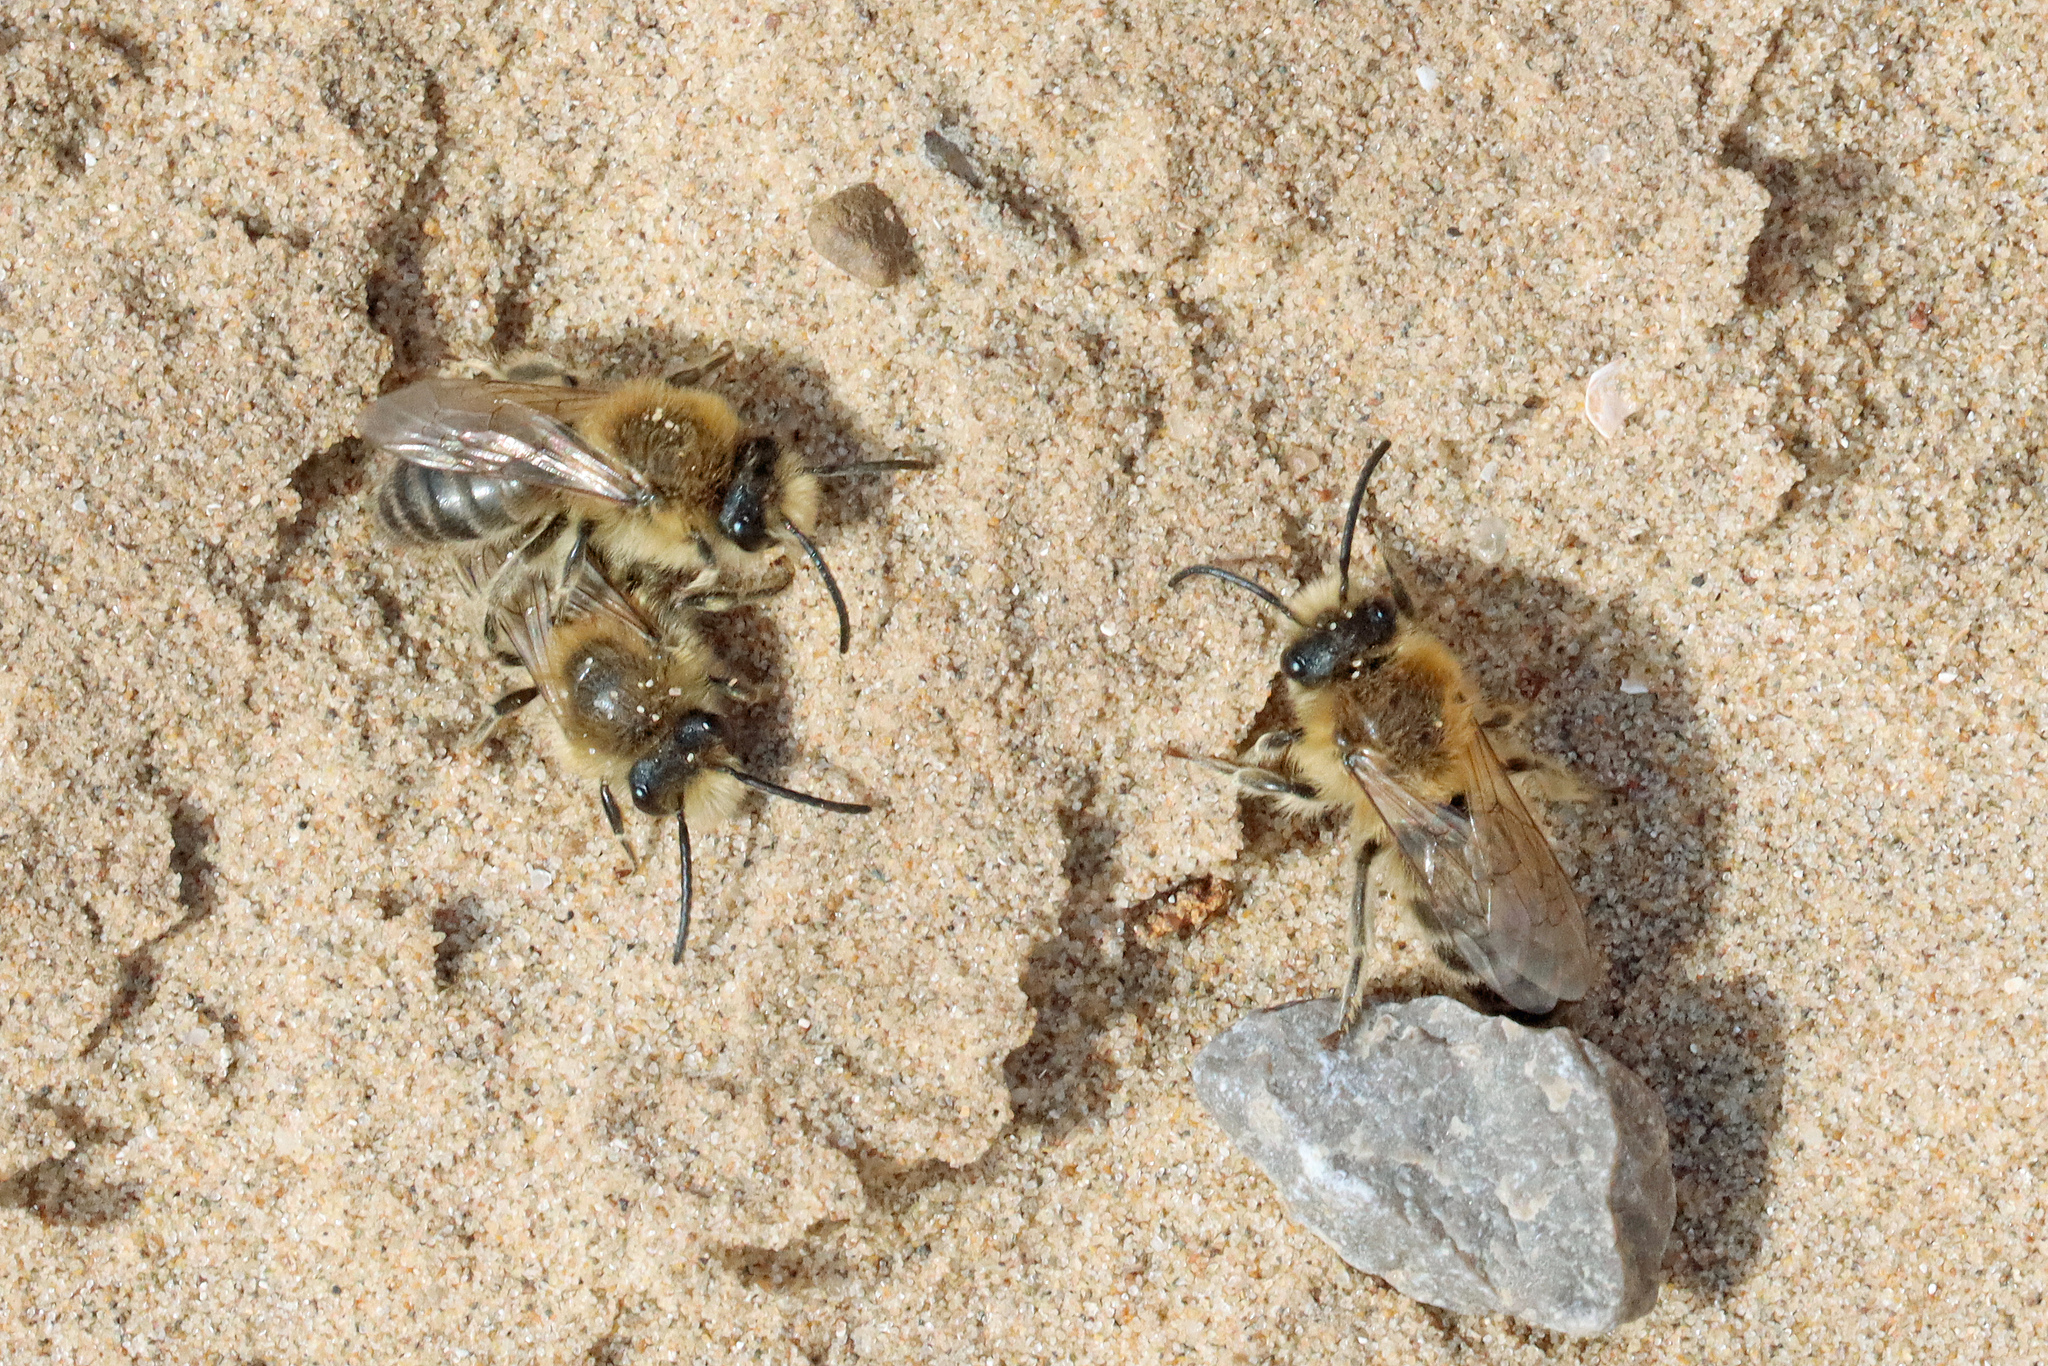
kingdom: Animalia
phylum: Arthropoda
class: Insecta
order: Hymenoptera
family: Colletidae
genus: Colletes
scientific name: Colletes cunicularius
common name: Early colletes
